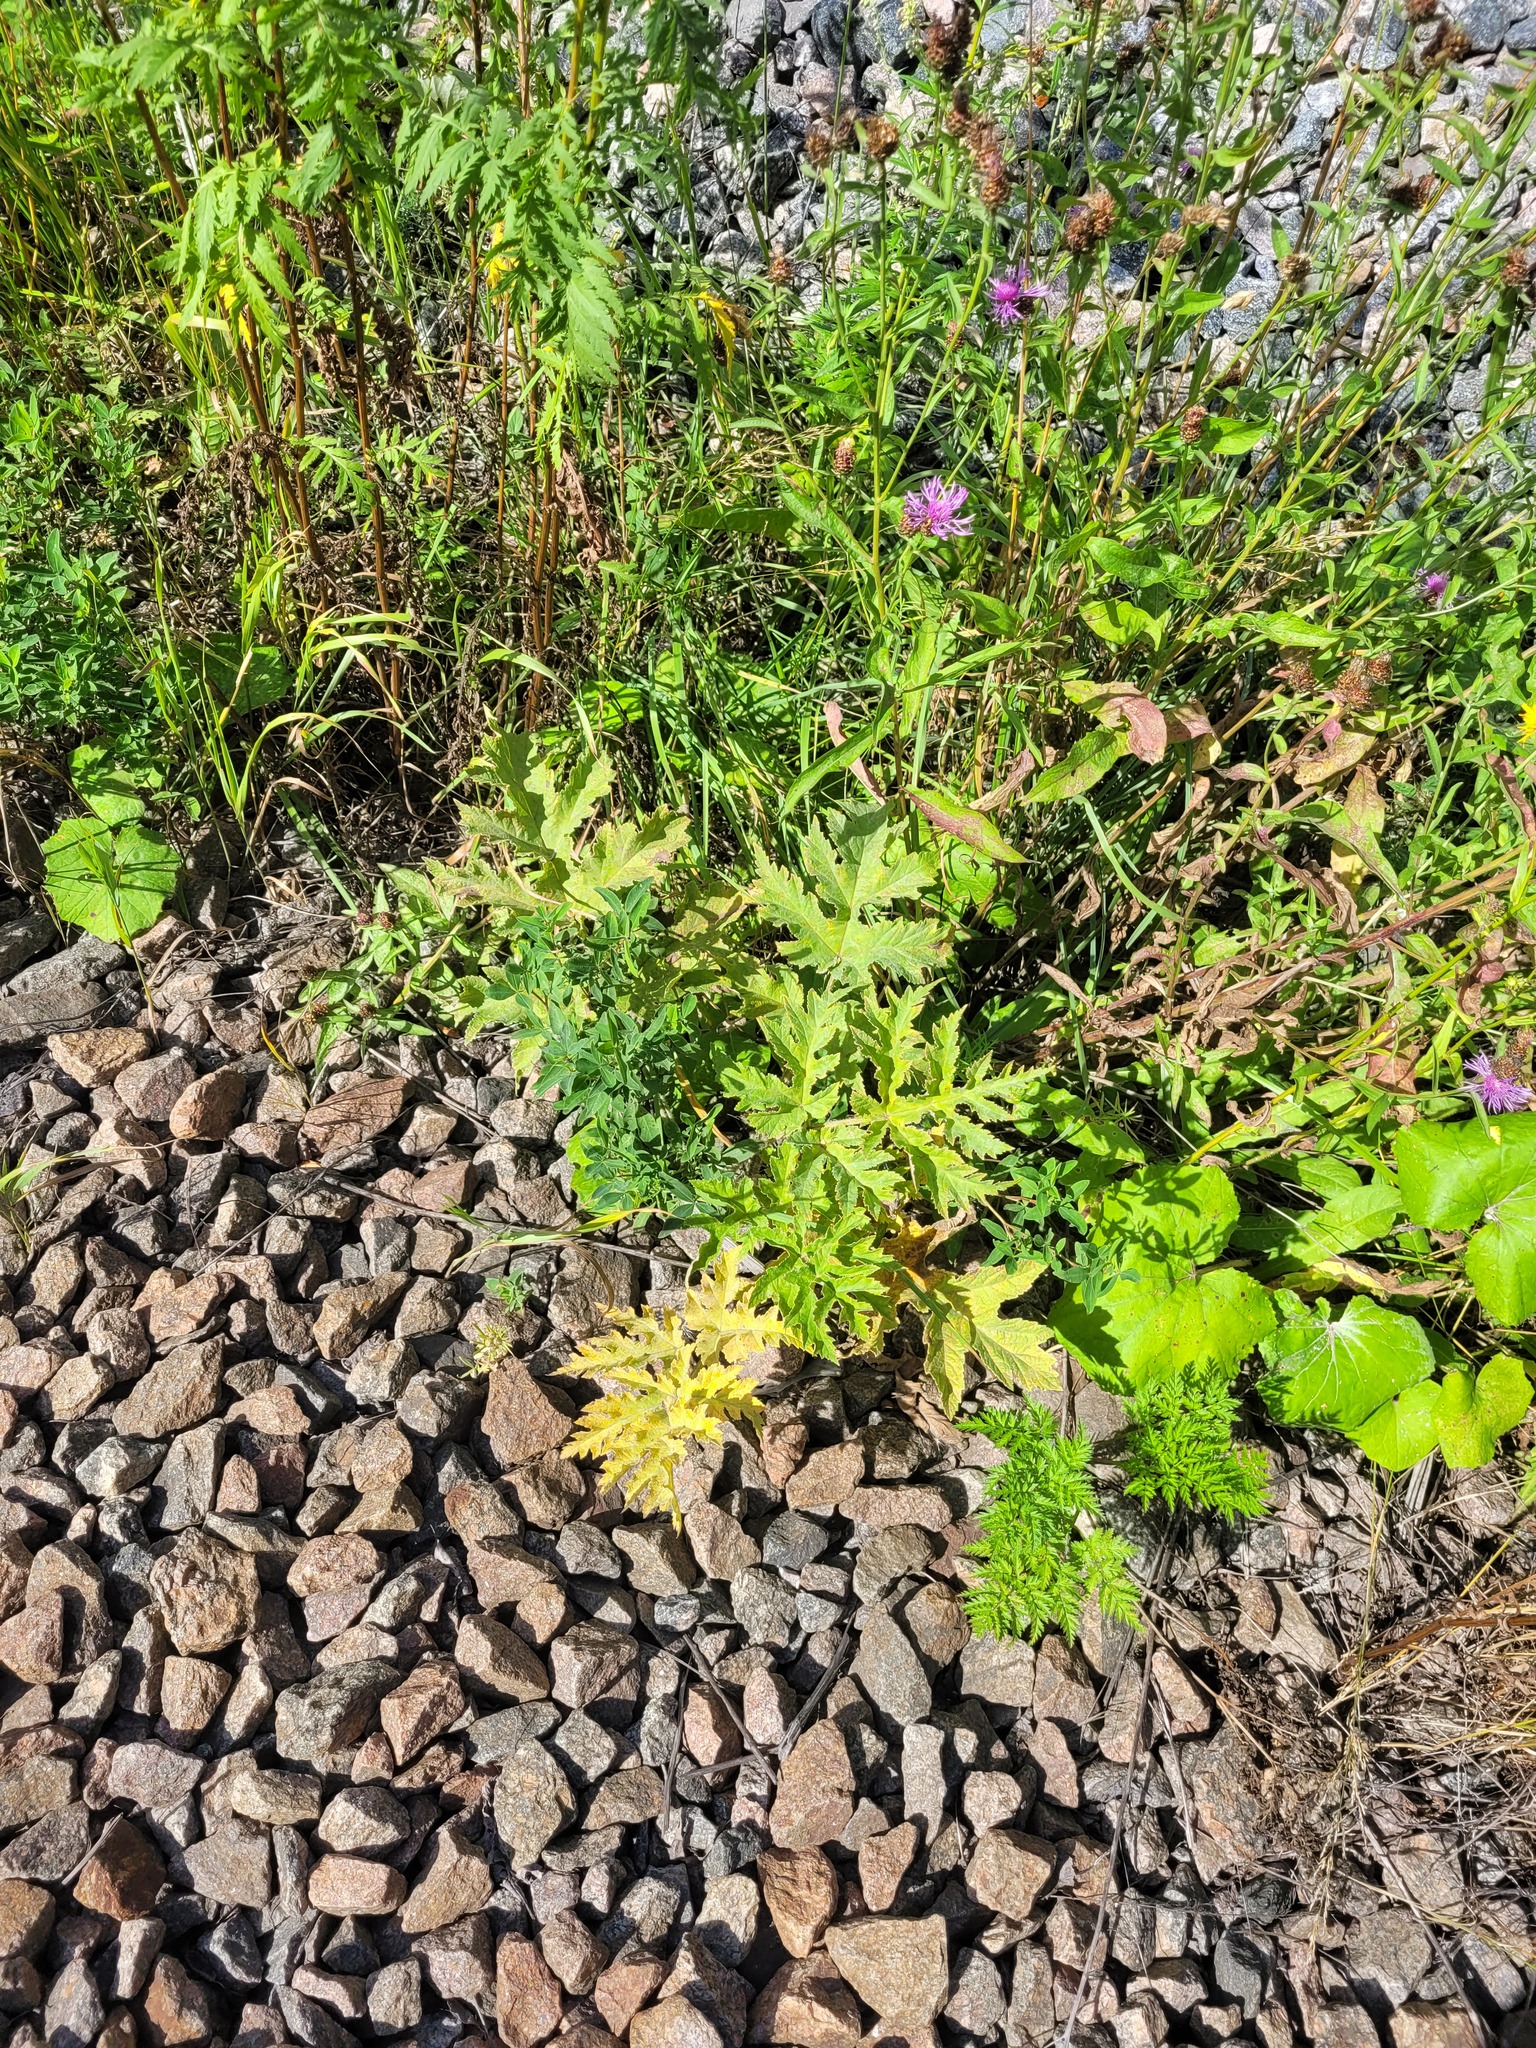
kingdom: Plantae
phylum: Tracheophyta
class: Magnoliopsida
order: Apiales
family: Apiaceae
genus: Heracleum
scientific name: Heracleum sphondylium
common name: Hogweed
